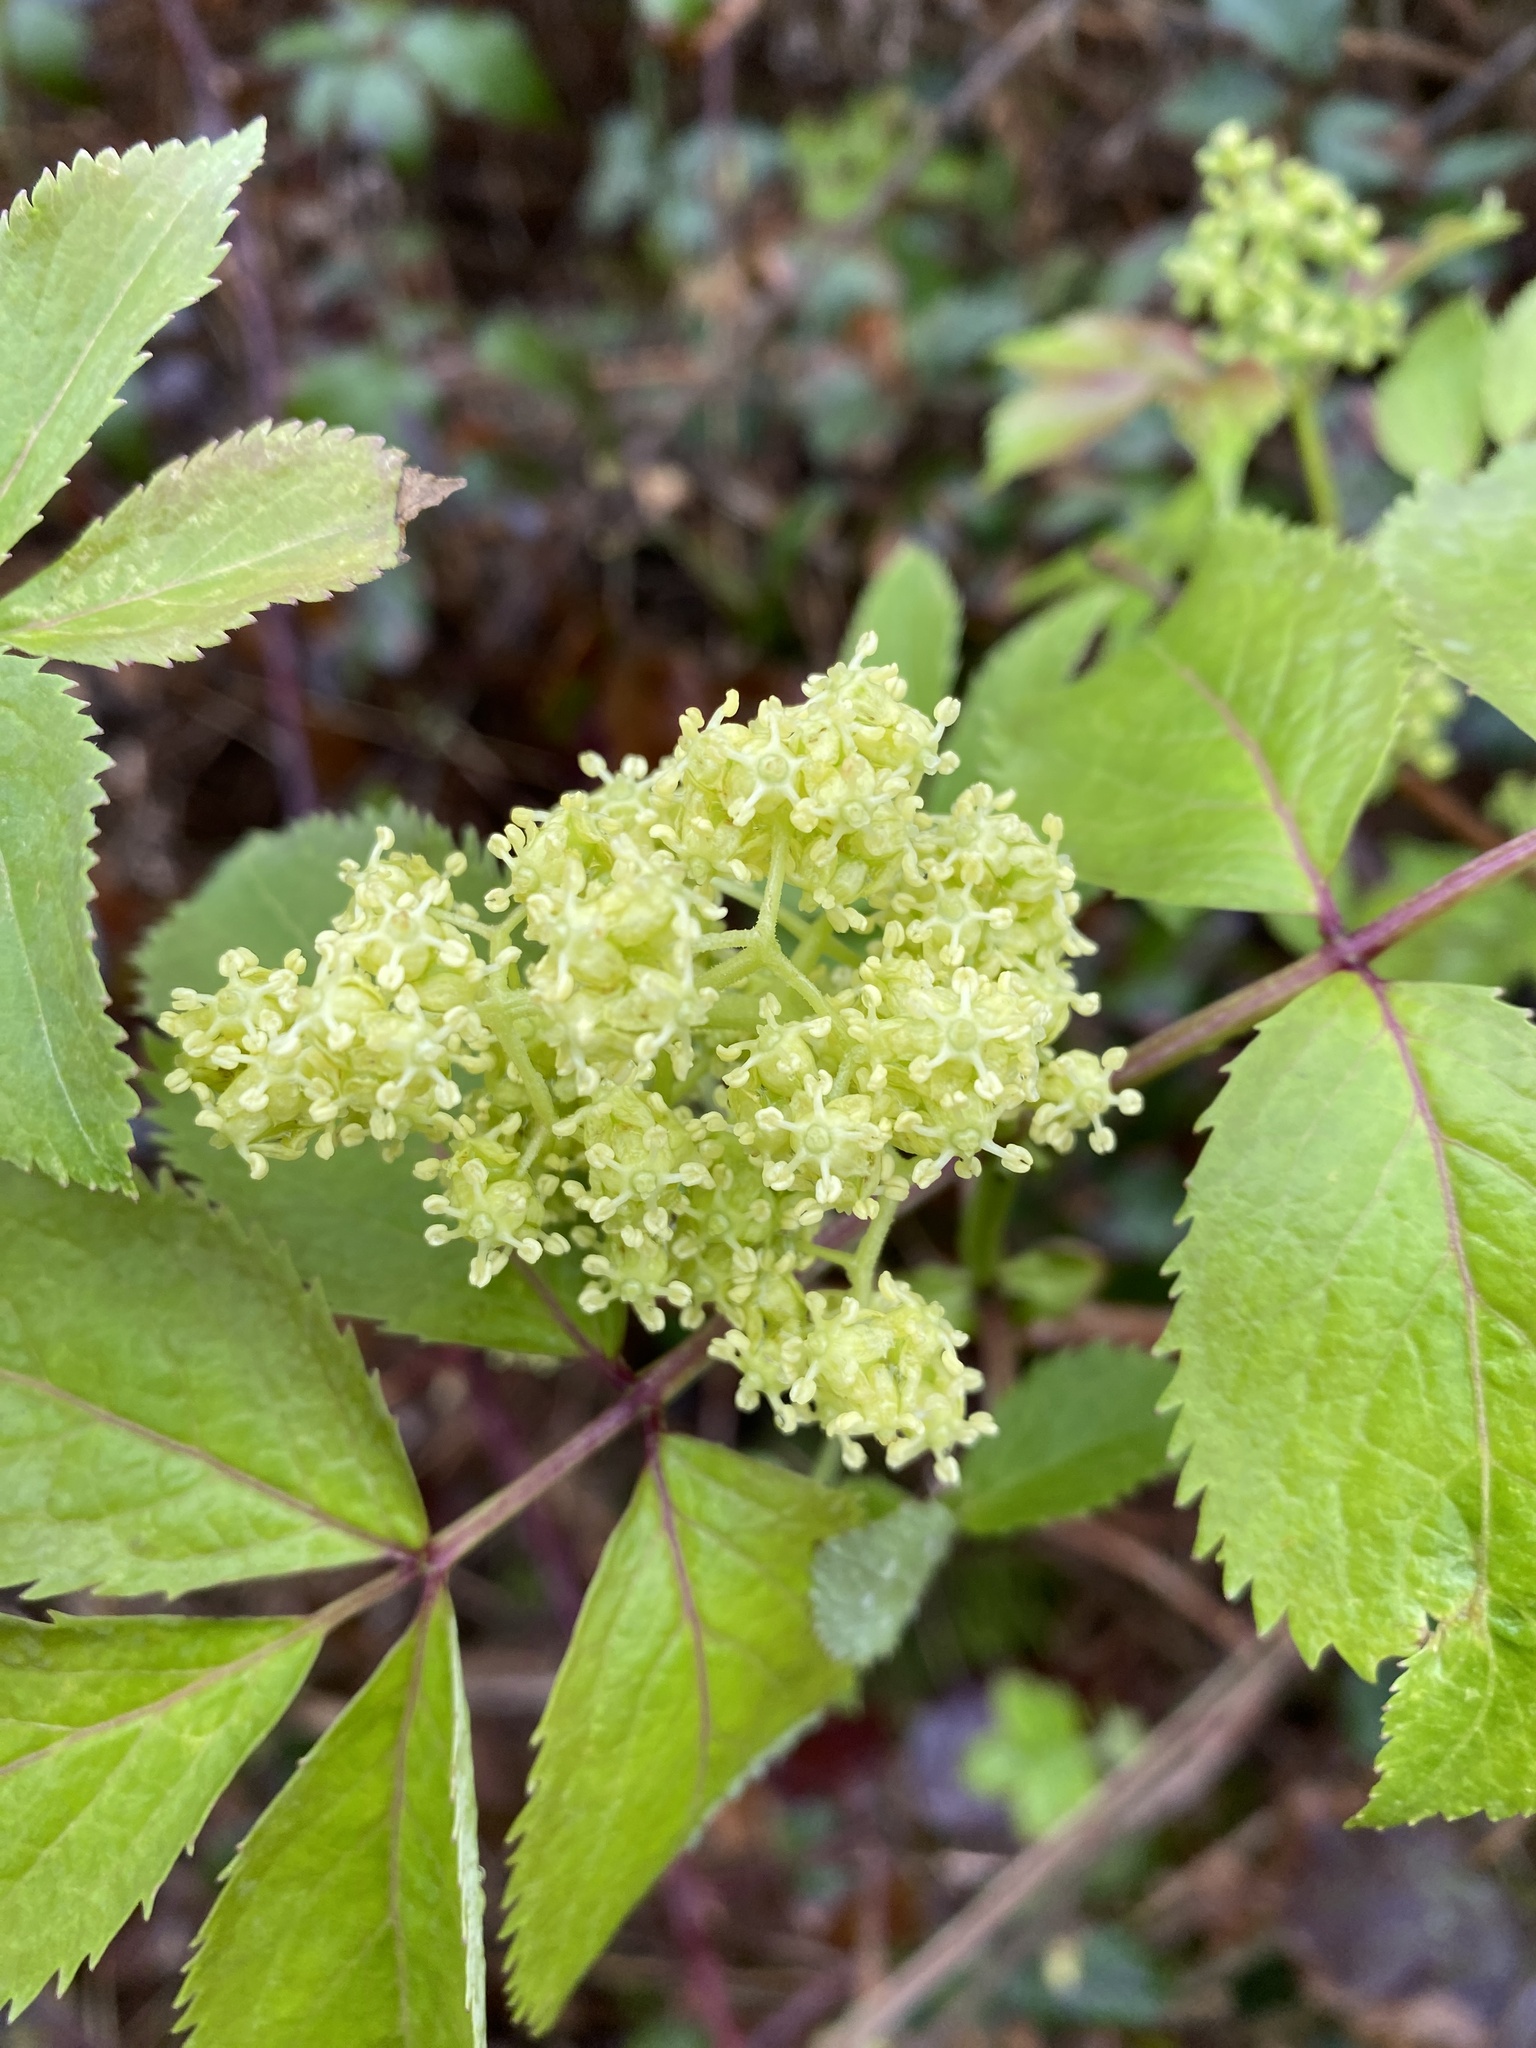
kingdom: Plantae
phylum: Tracheophyta
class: Magnoliopsida
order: Dipsacales
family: Viburnaceae
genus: Sambucus
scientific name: Sambucus racemosa
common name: Red-berried elder
